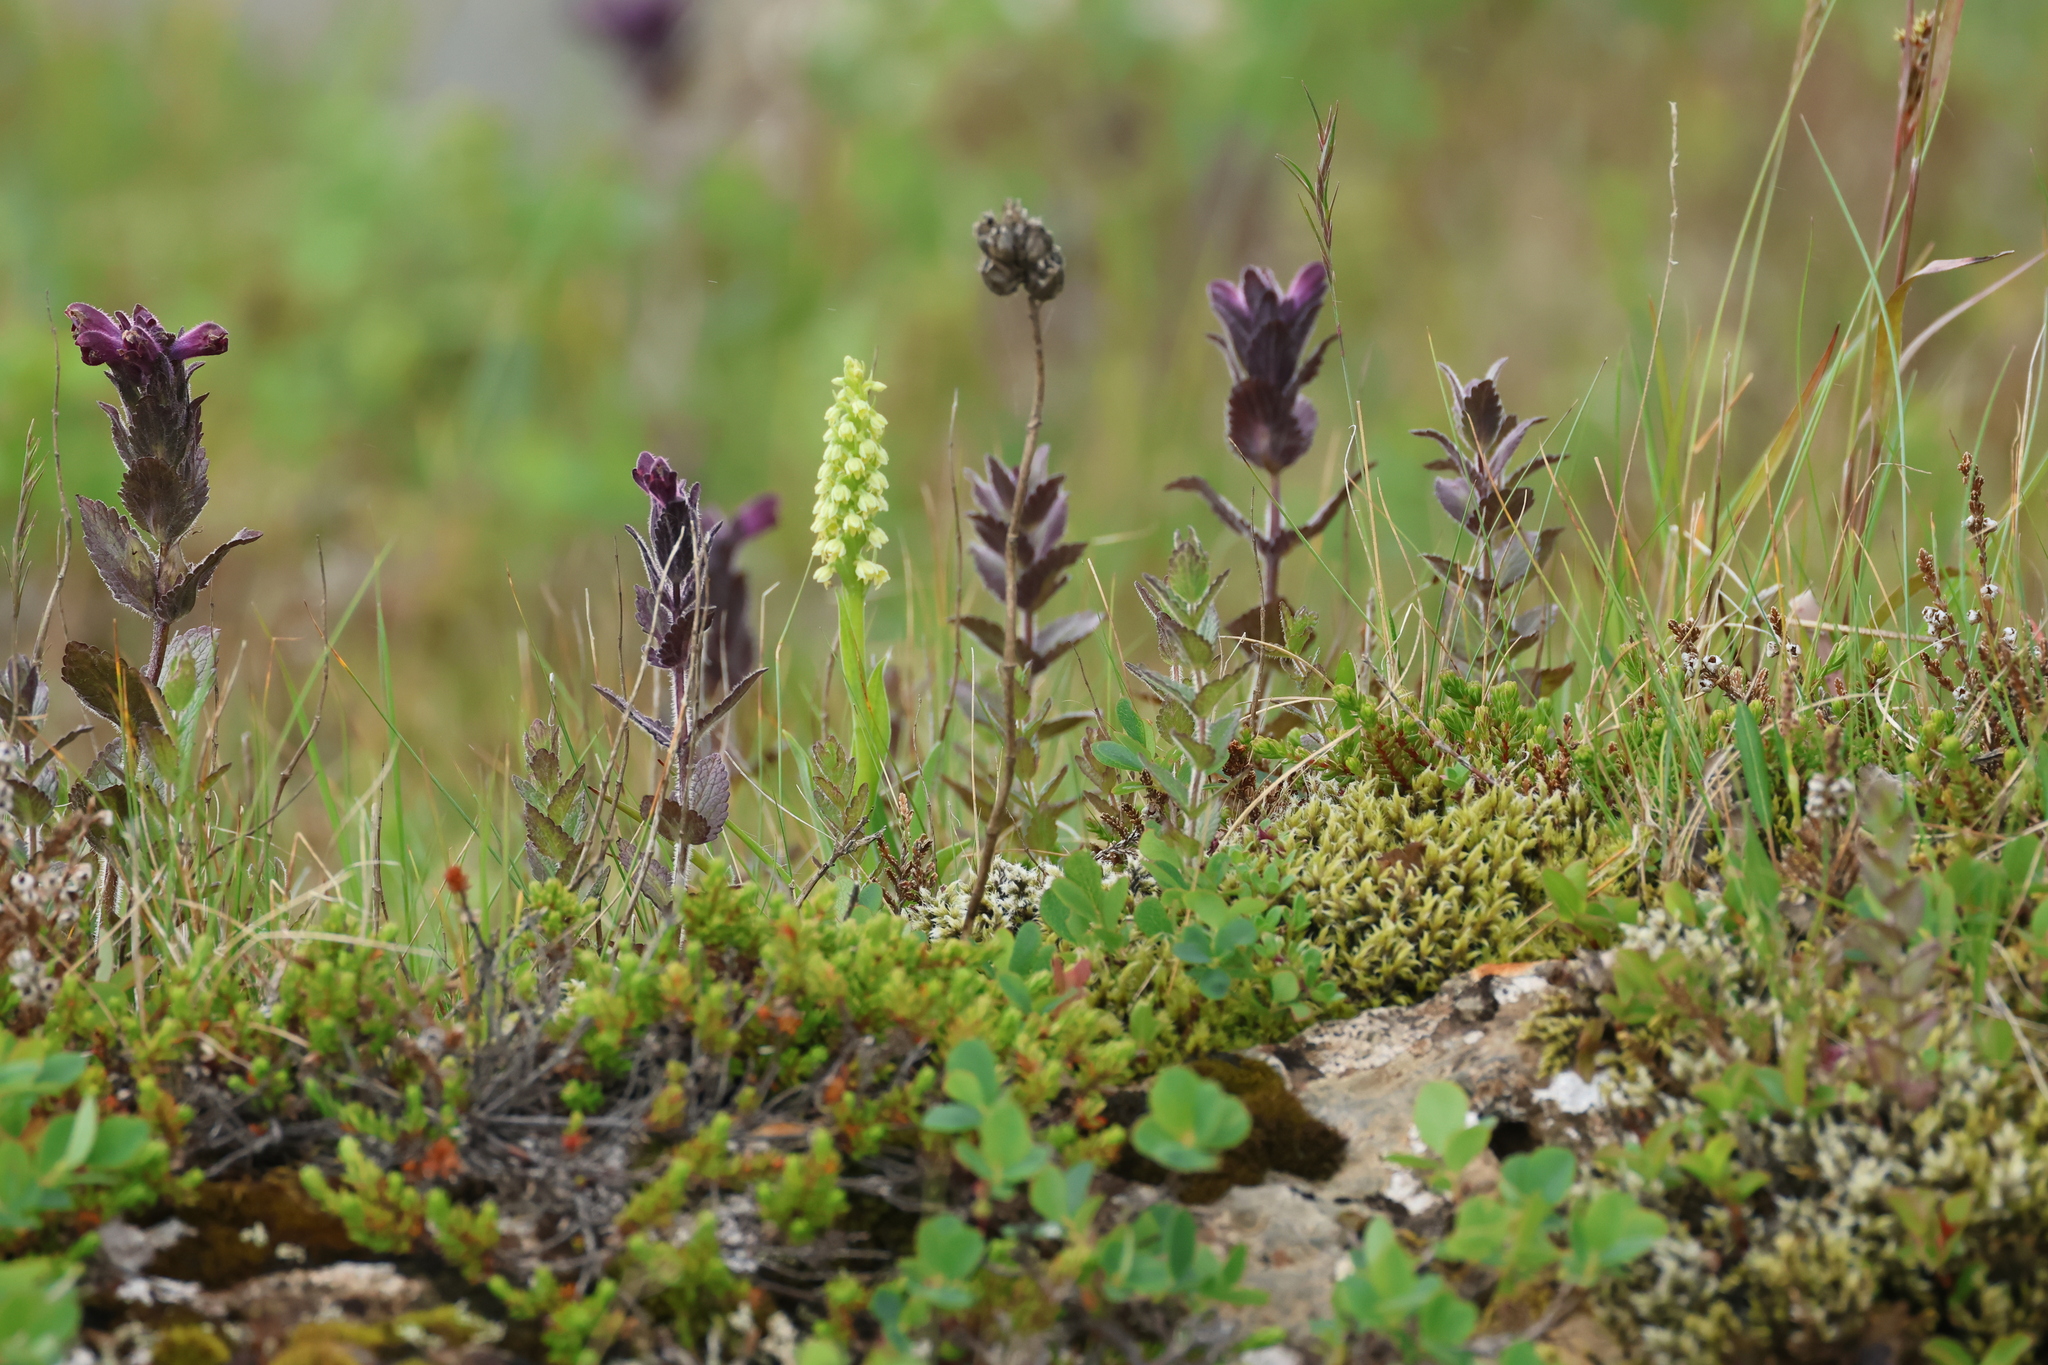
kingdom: Plantae
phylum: Tracheophyta
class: Liliopsida
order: Asparagales
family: Orchidaceae
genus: Pseudorchis
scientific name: Pseudorchis albida
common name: Small-white orchid
